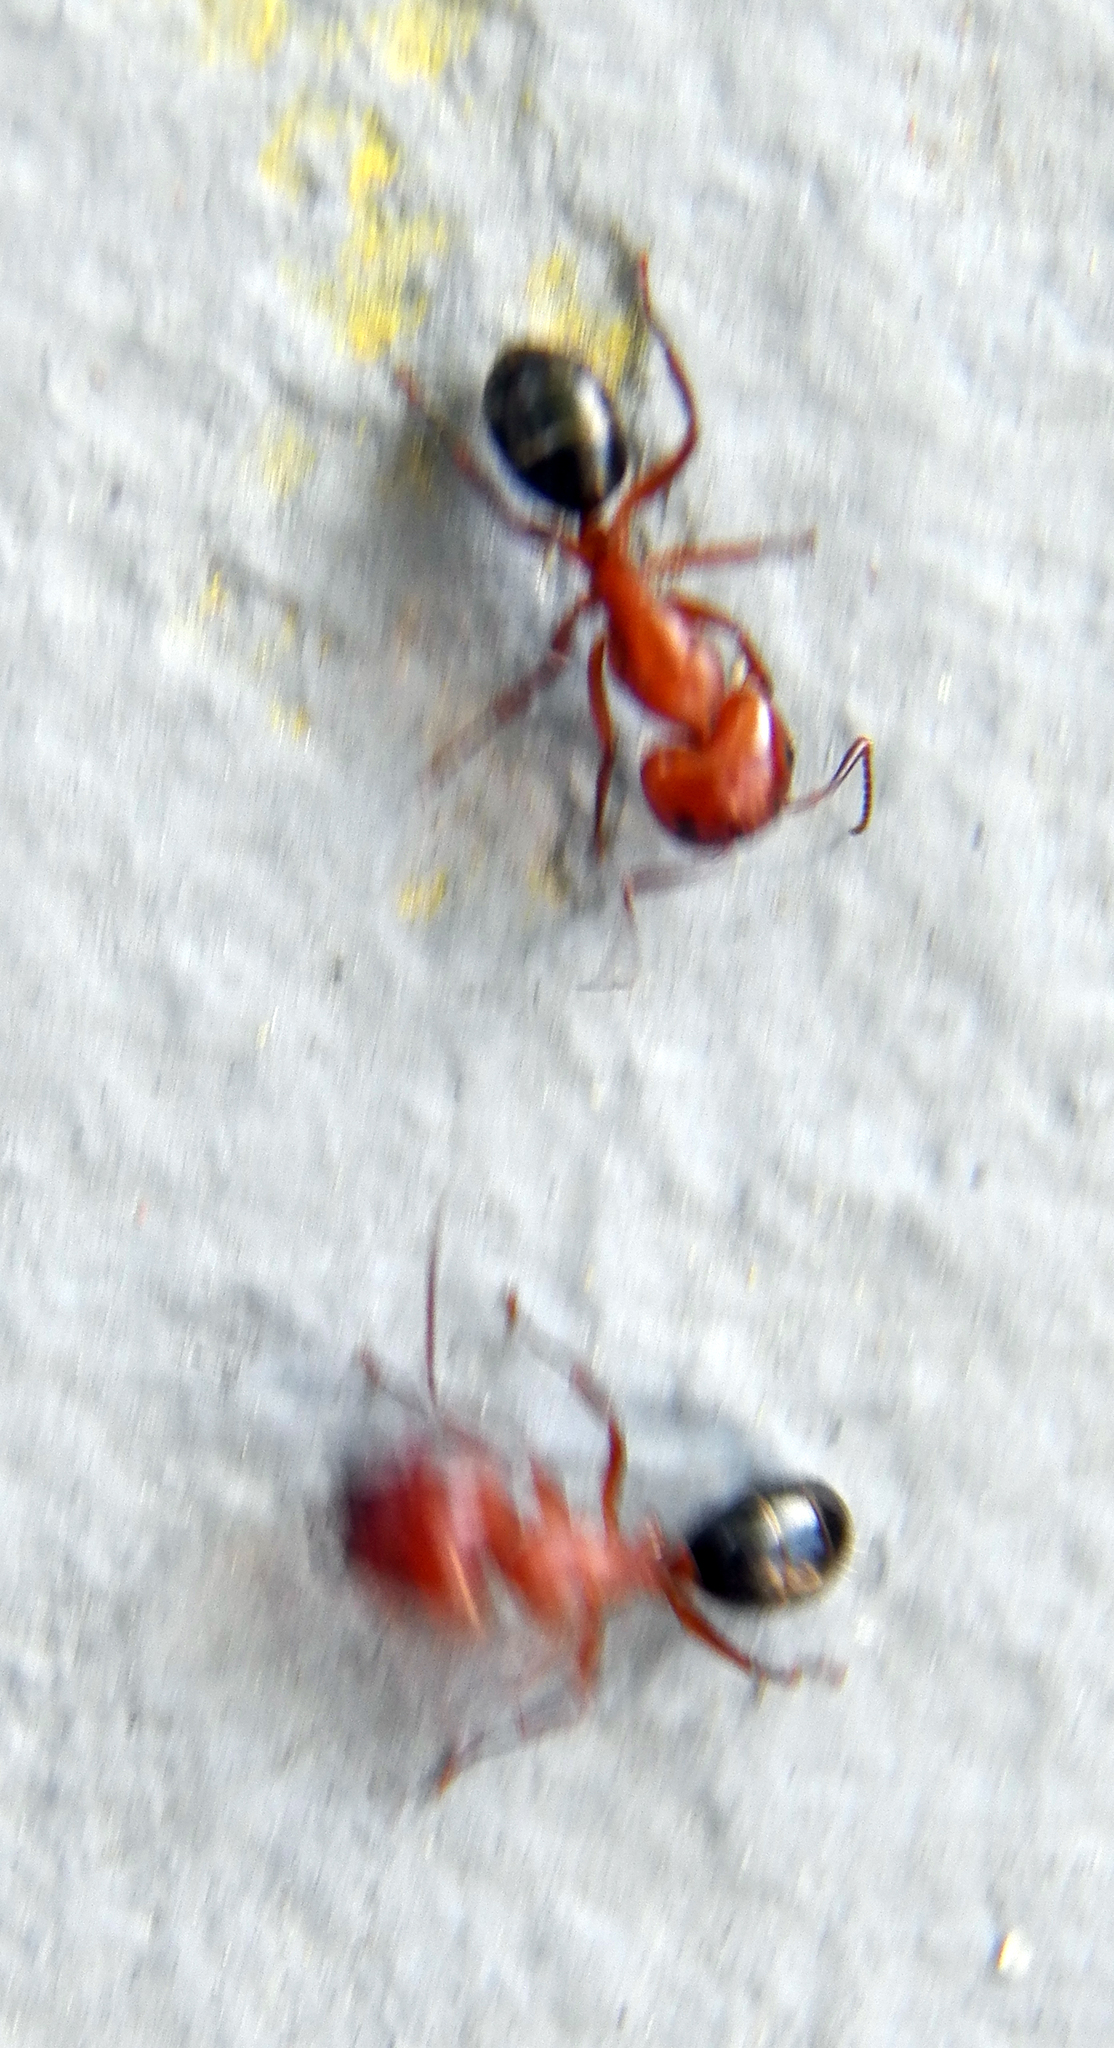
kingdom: Animalia
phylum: Arthropoda
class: Insecta
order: Hymenoptera
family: Formicidae
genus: Camponotus
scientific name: Camponotus decipiens
